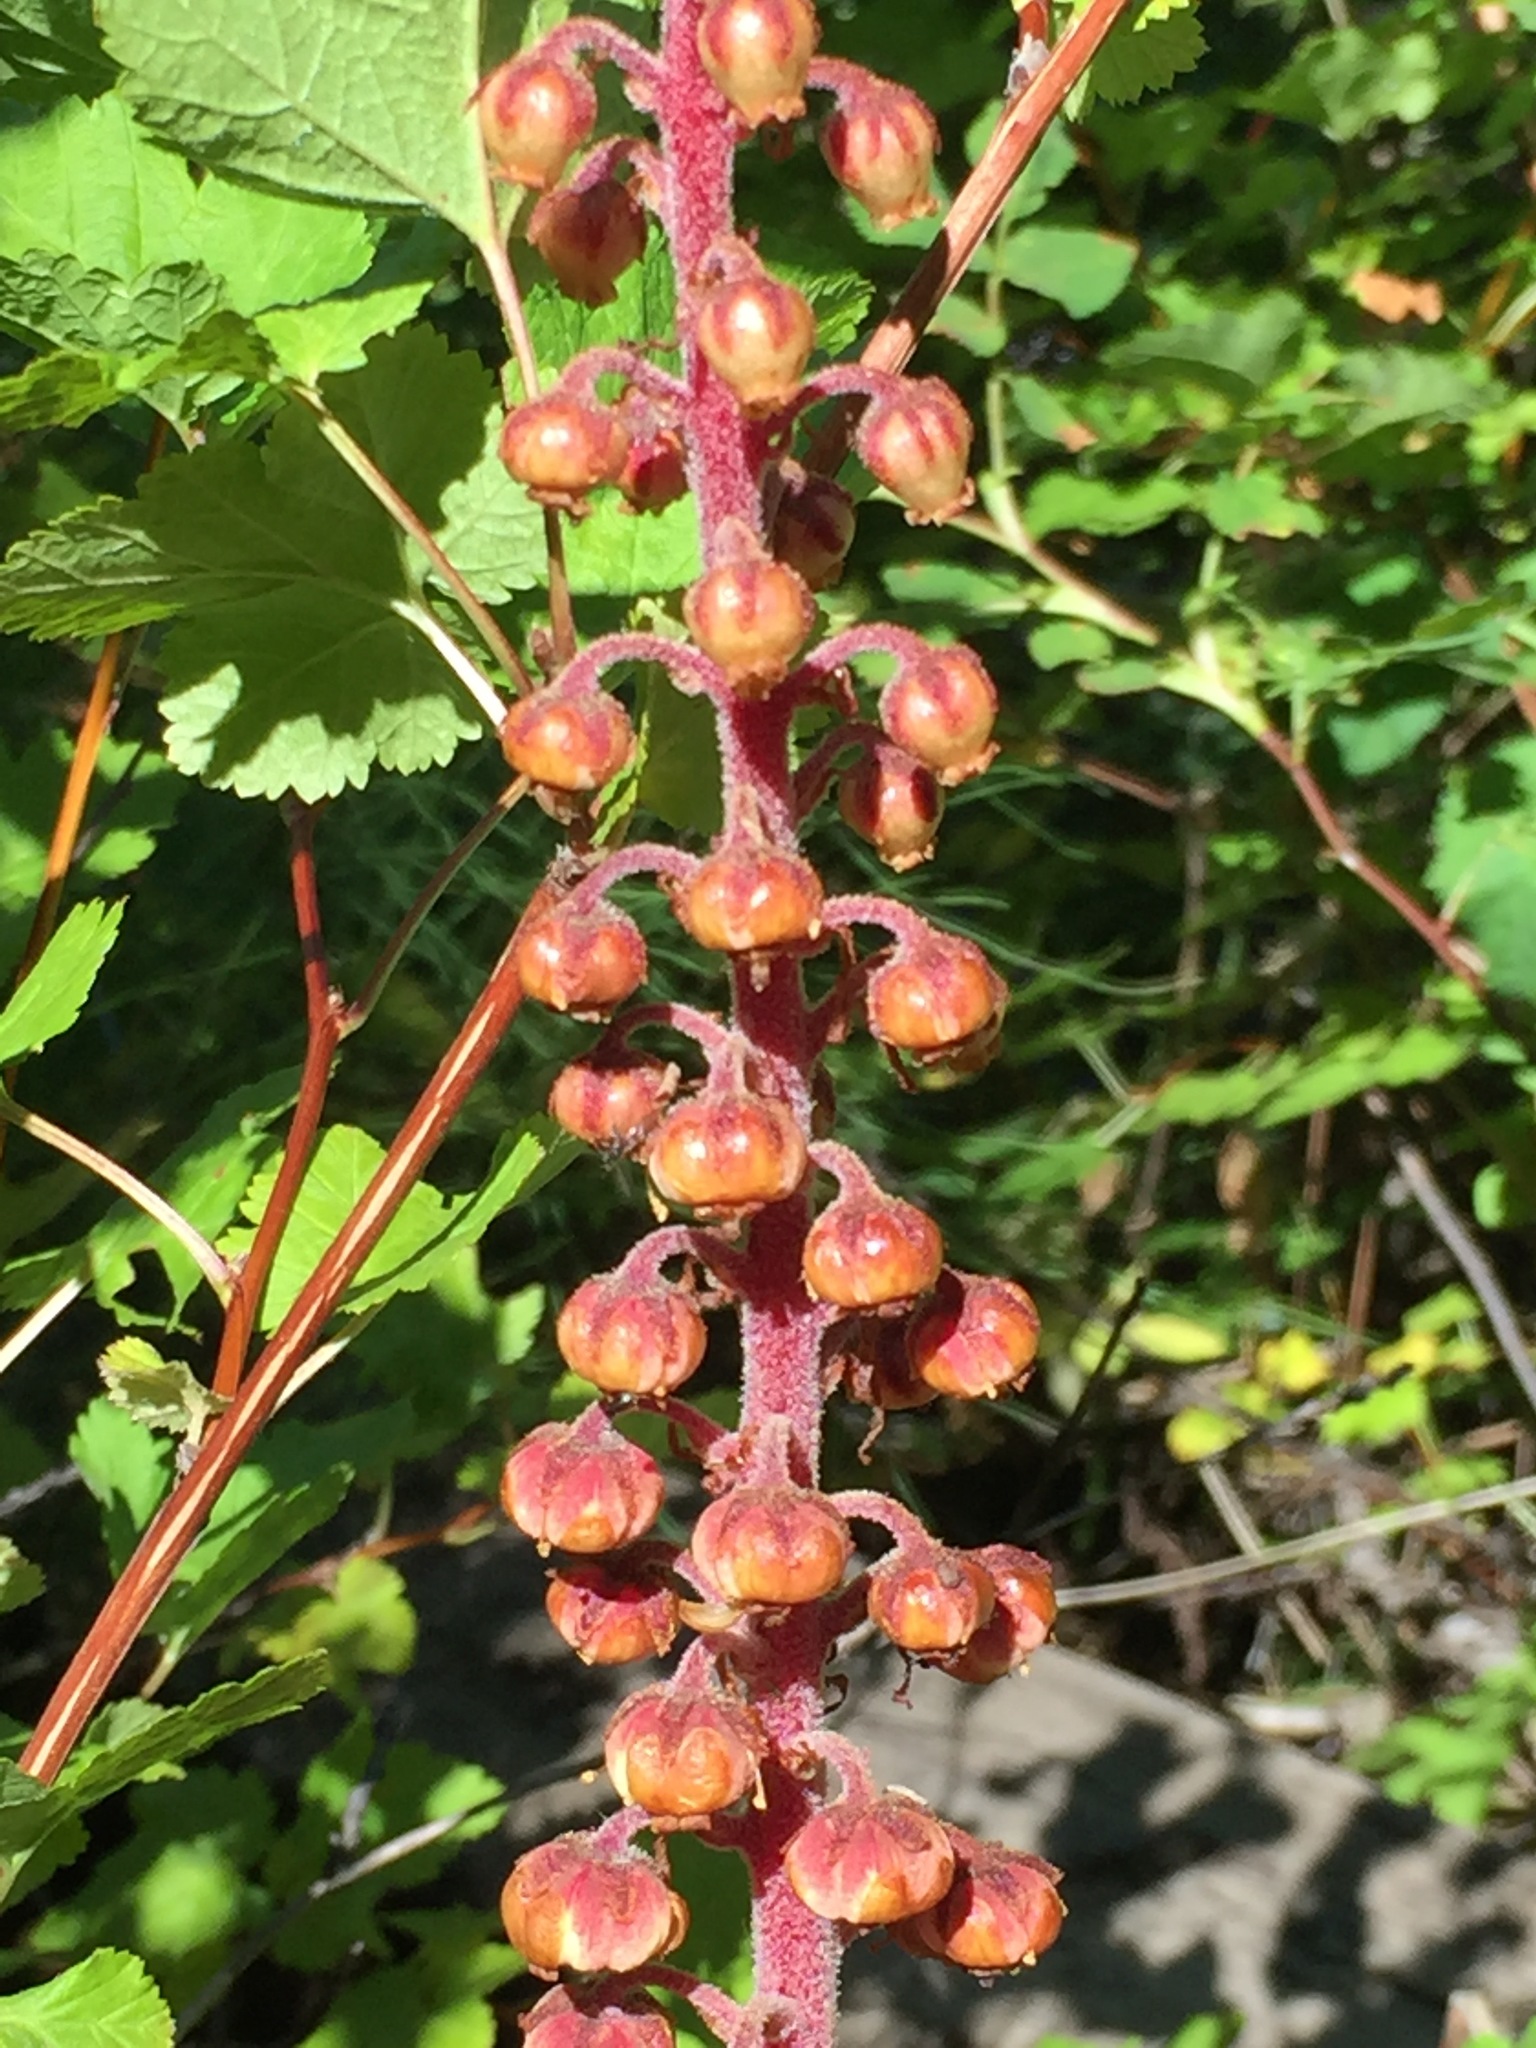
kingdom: Plantae
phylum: Tracheophyta
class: Magnoliopsida
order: Ericales
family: Ericaceae
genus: Pterospora
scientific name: Pterospora andromedea
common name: Giant bird's-nest
